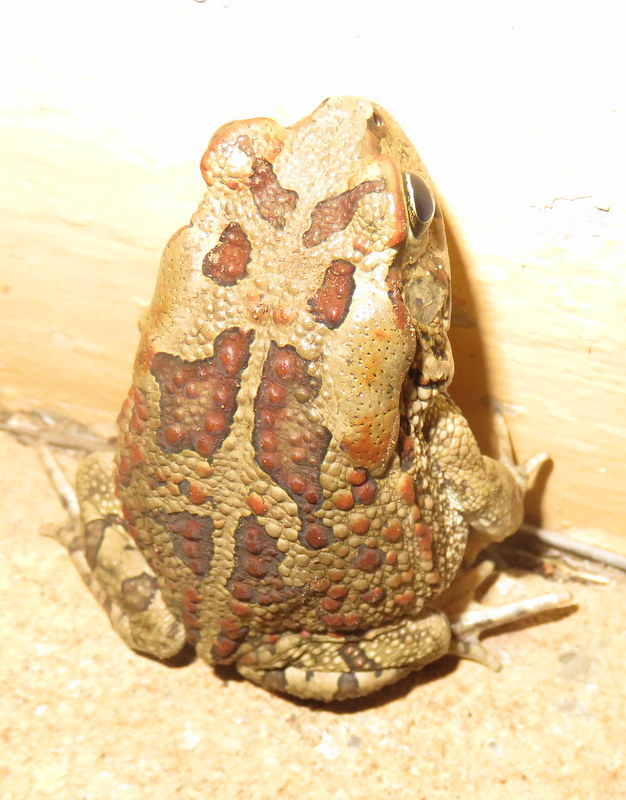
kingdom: Animalia
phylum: Chordata
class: Amphibia
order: Anura
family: Bufonidae
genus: Sclerophrys
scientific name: Sclerophrys garmani
